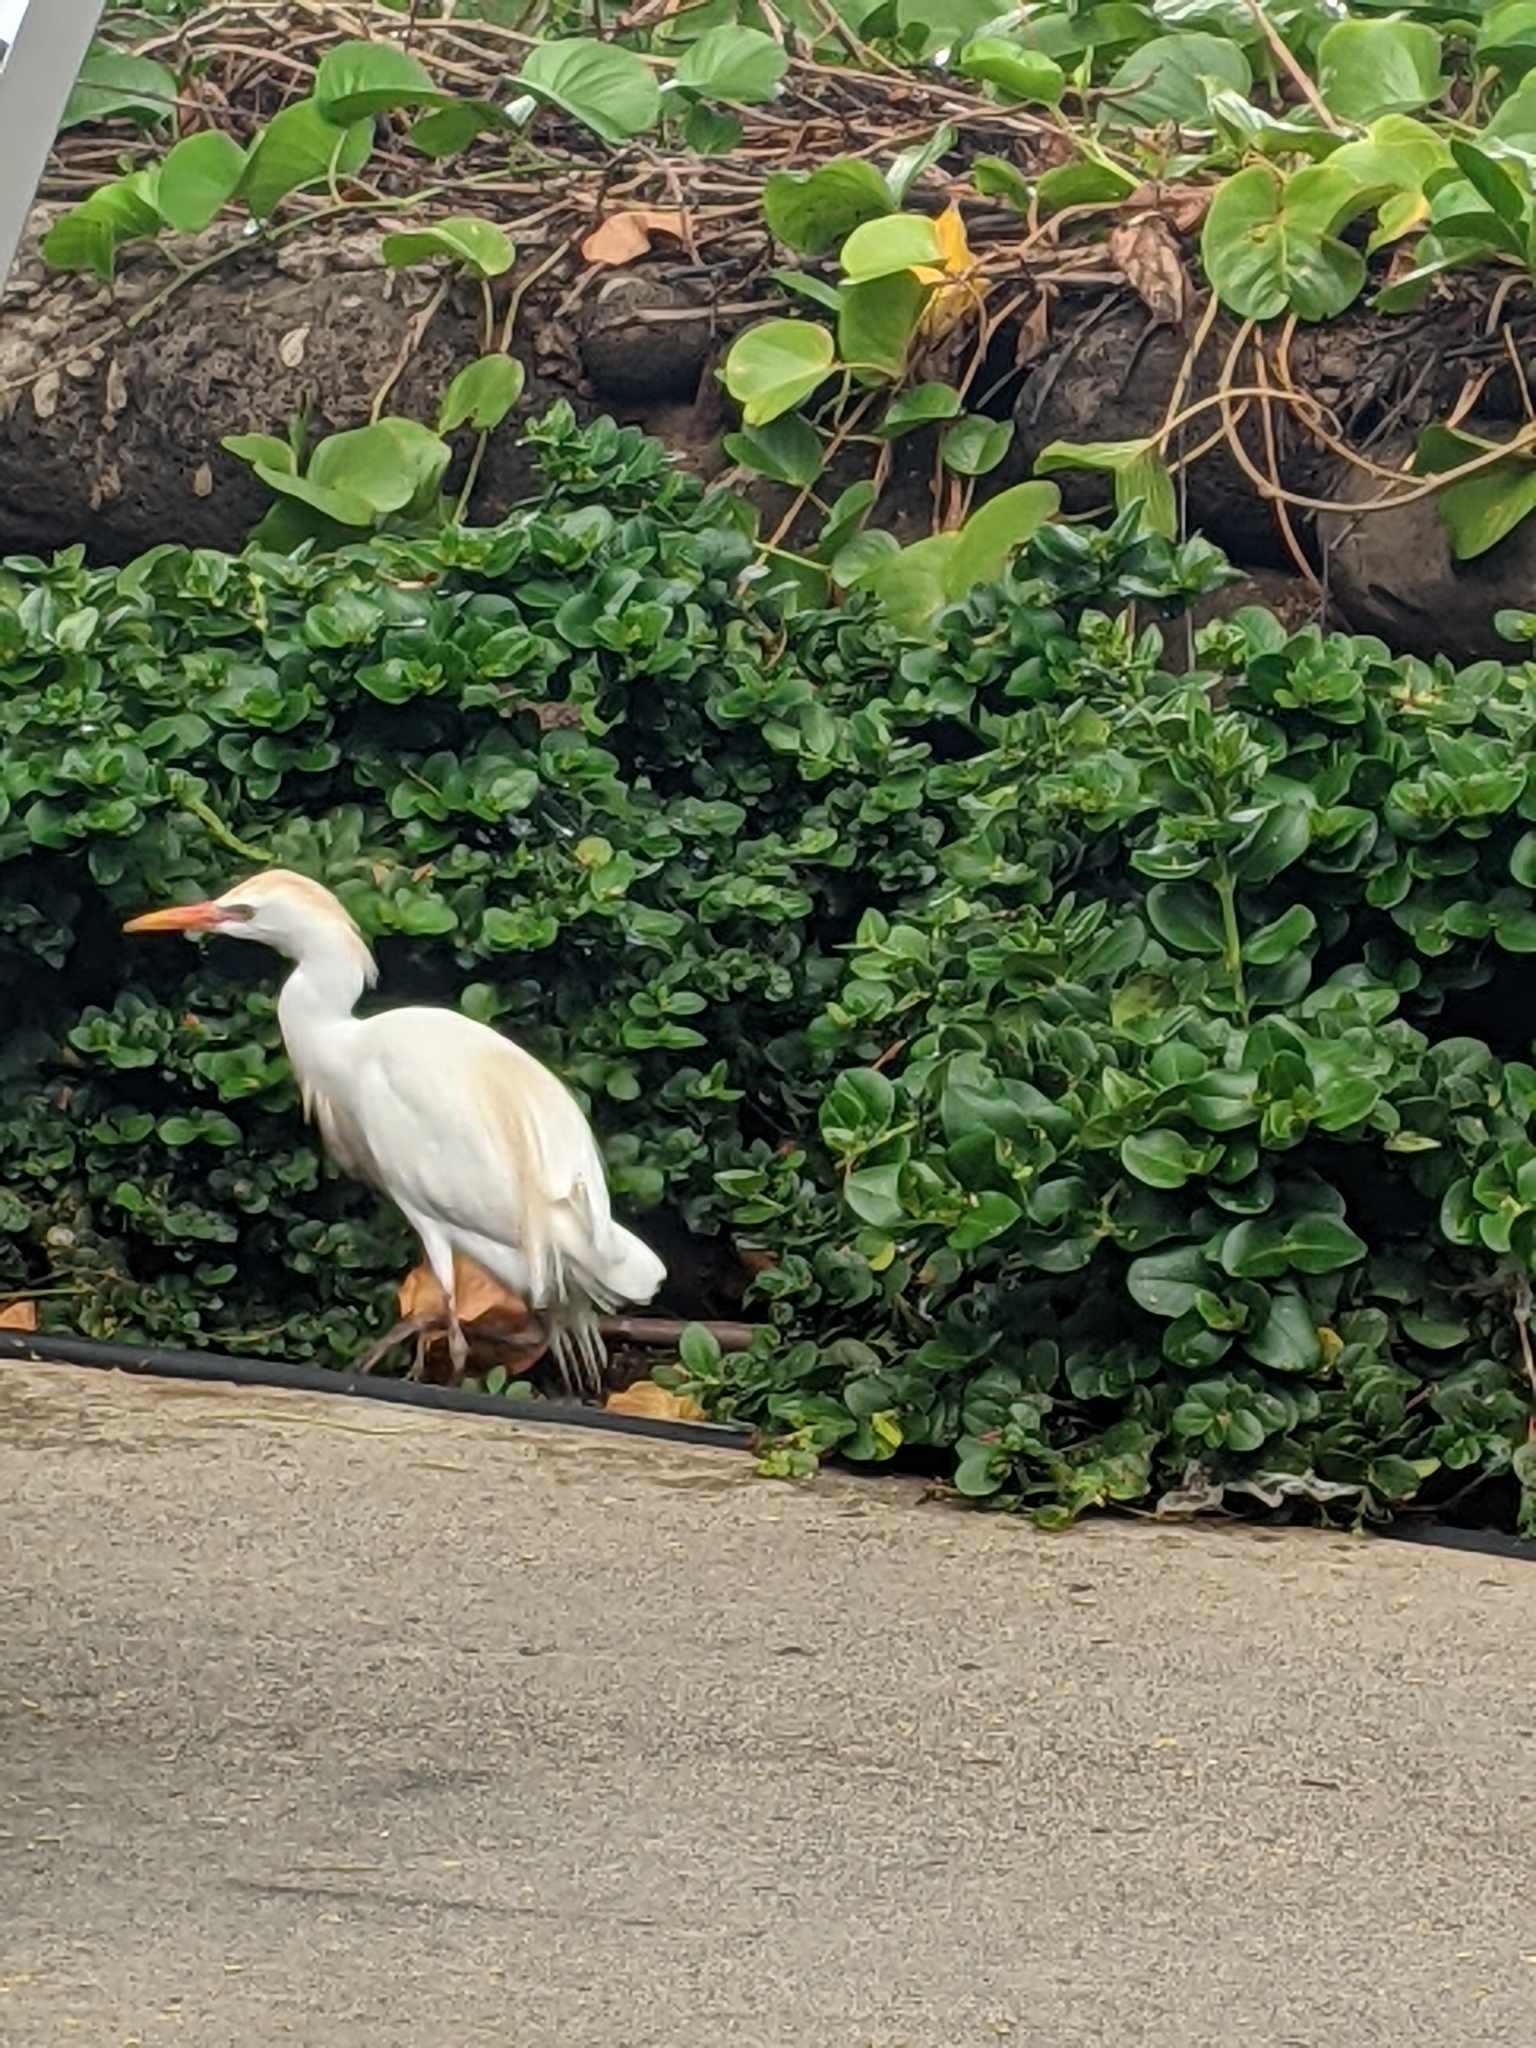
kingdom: Animalia
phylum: Chordata
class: Aves
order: Pelecaniformes
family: Ardeidae
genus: Bubulcus
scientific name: Bubulcus ibis
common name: Cattle egret
